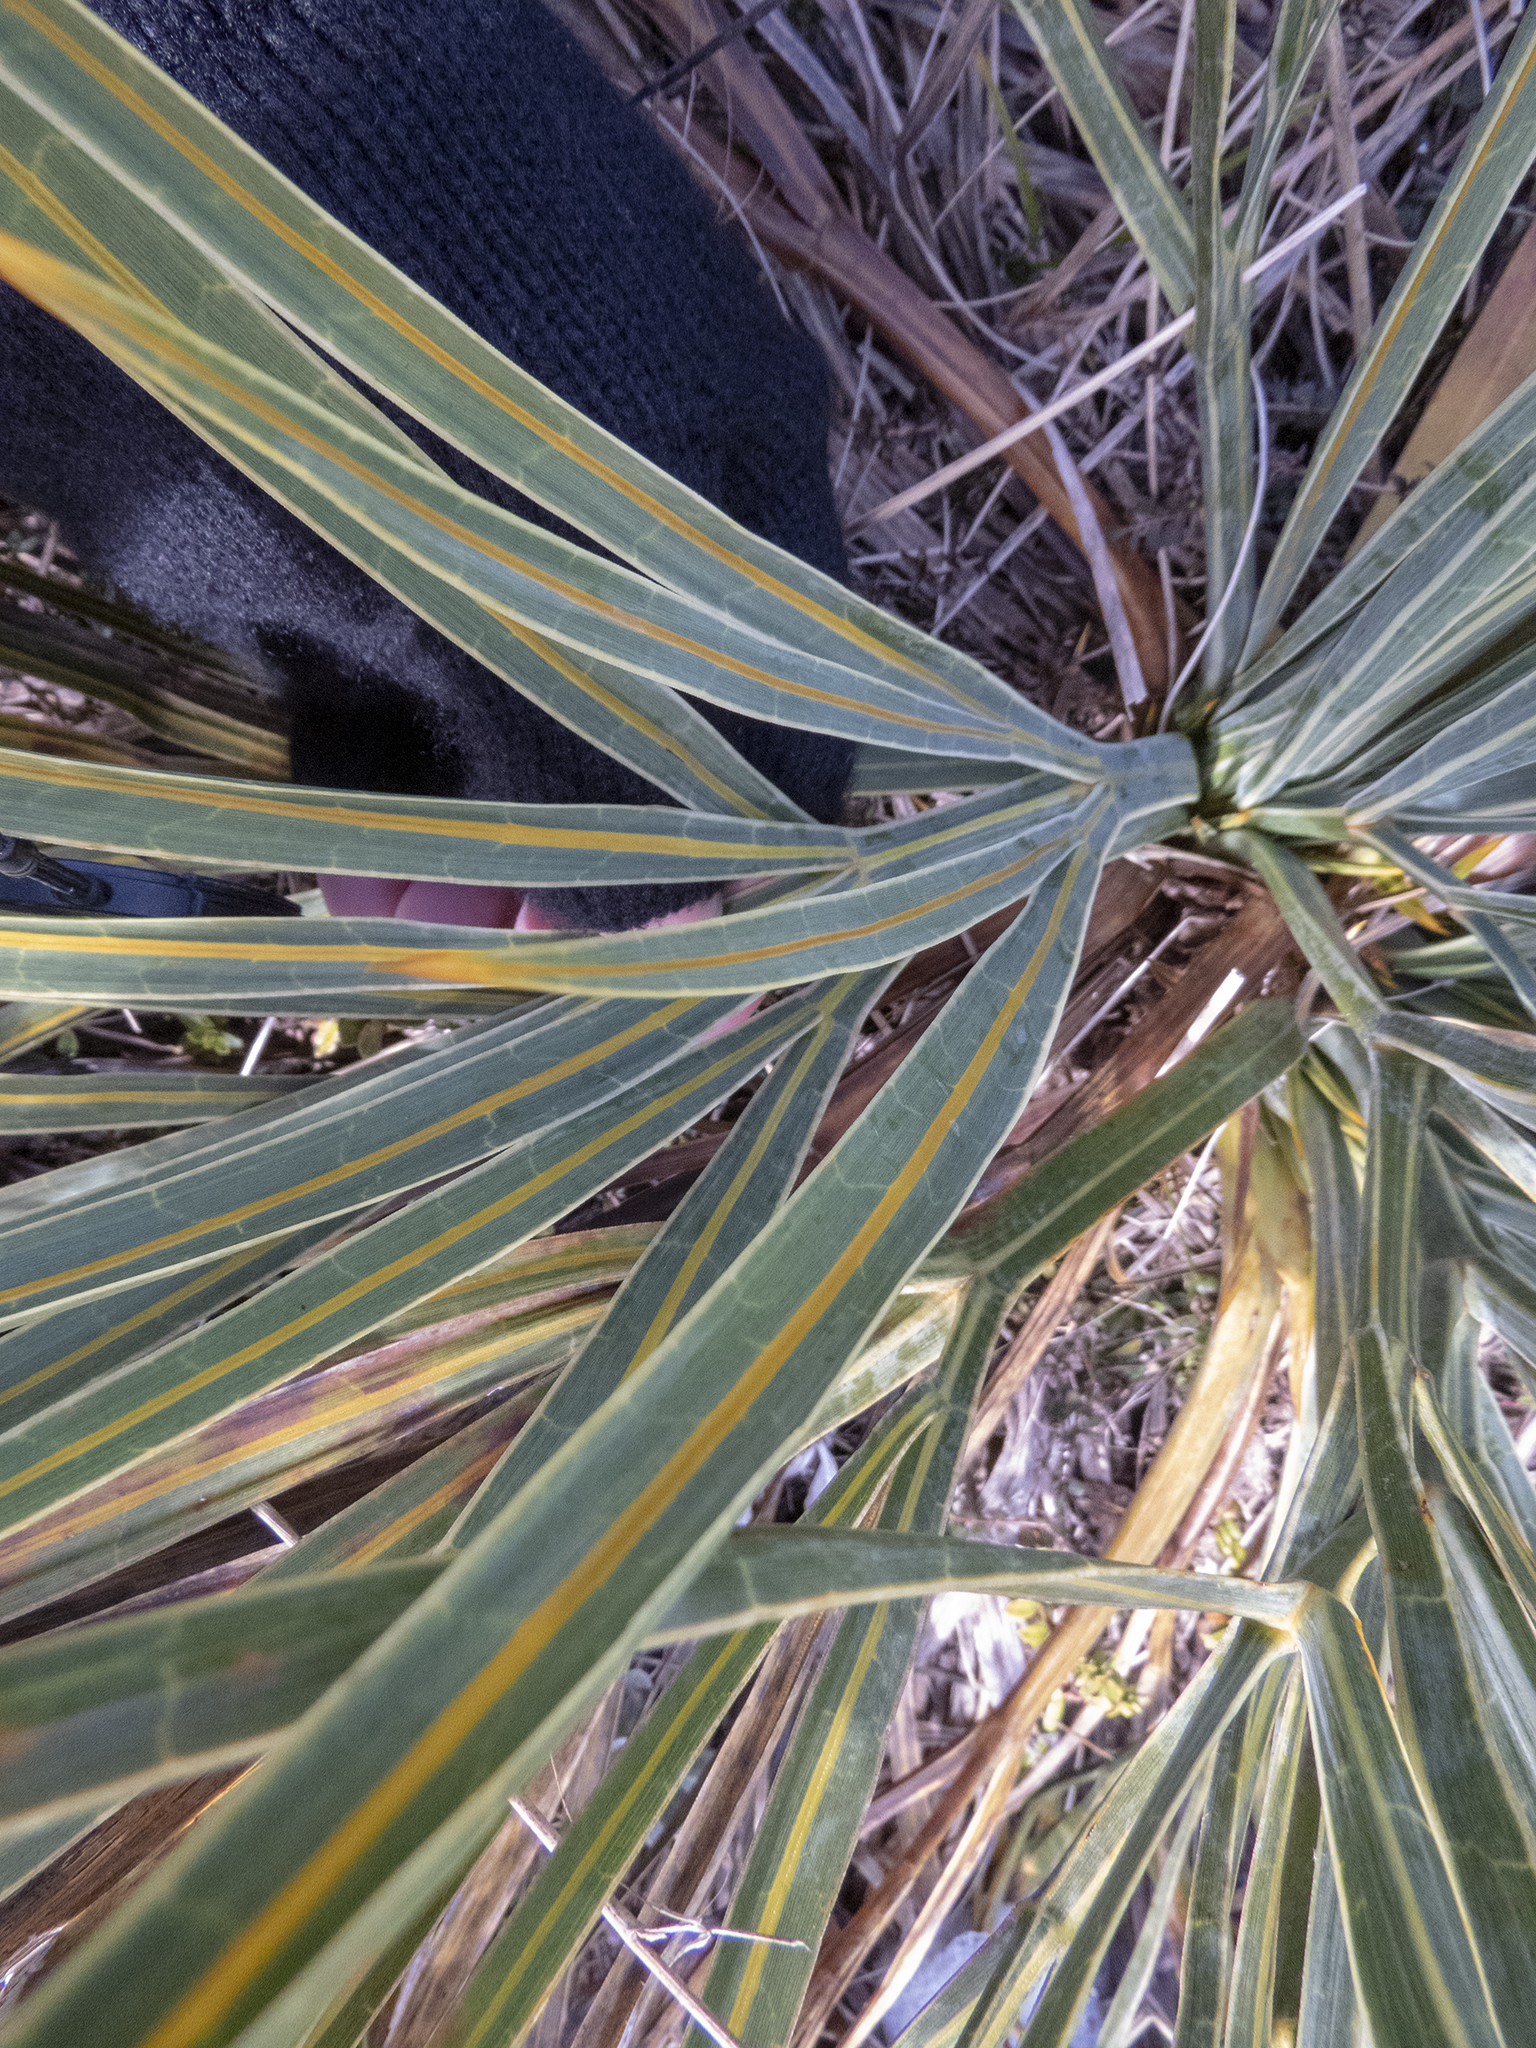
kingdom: Plantae
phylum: Tracheophyta
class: Magnoliopsida
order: Apiales
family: Apiaceae
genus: Aciphylla
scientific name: Aciphylla colensoi
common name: Colenso's spaniard
